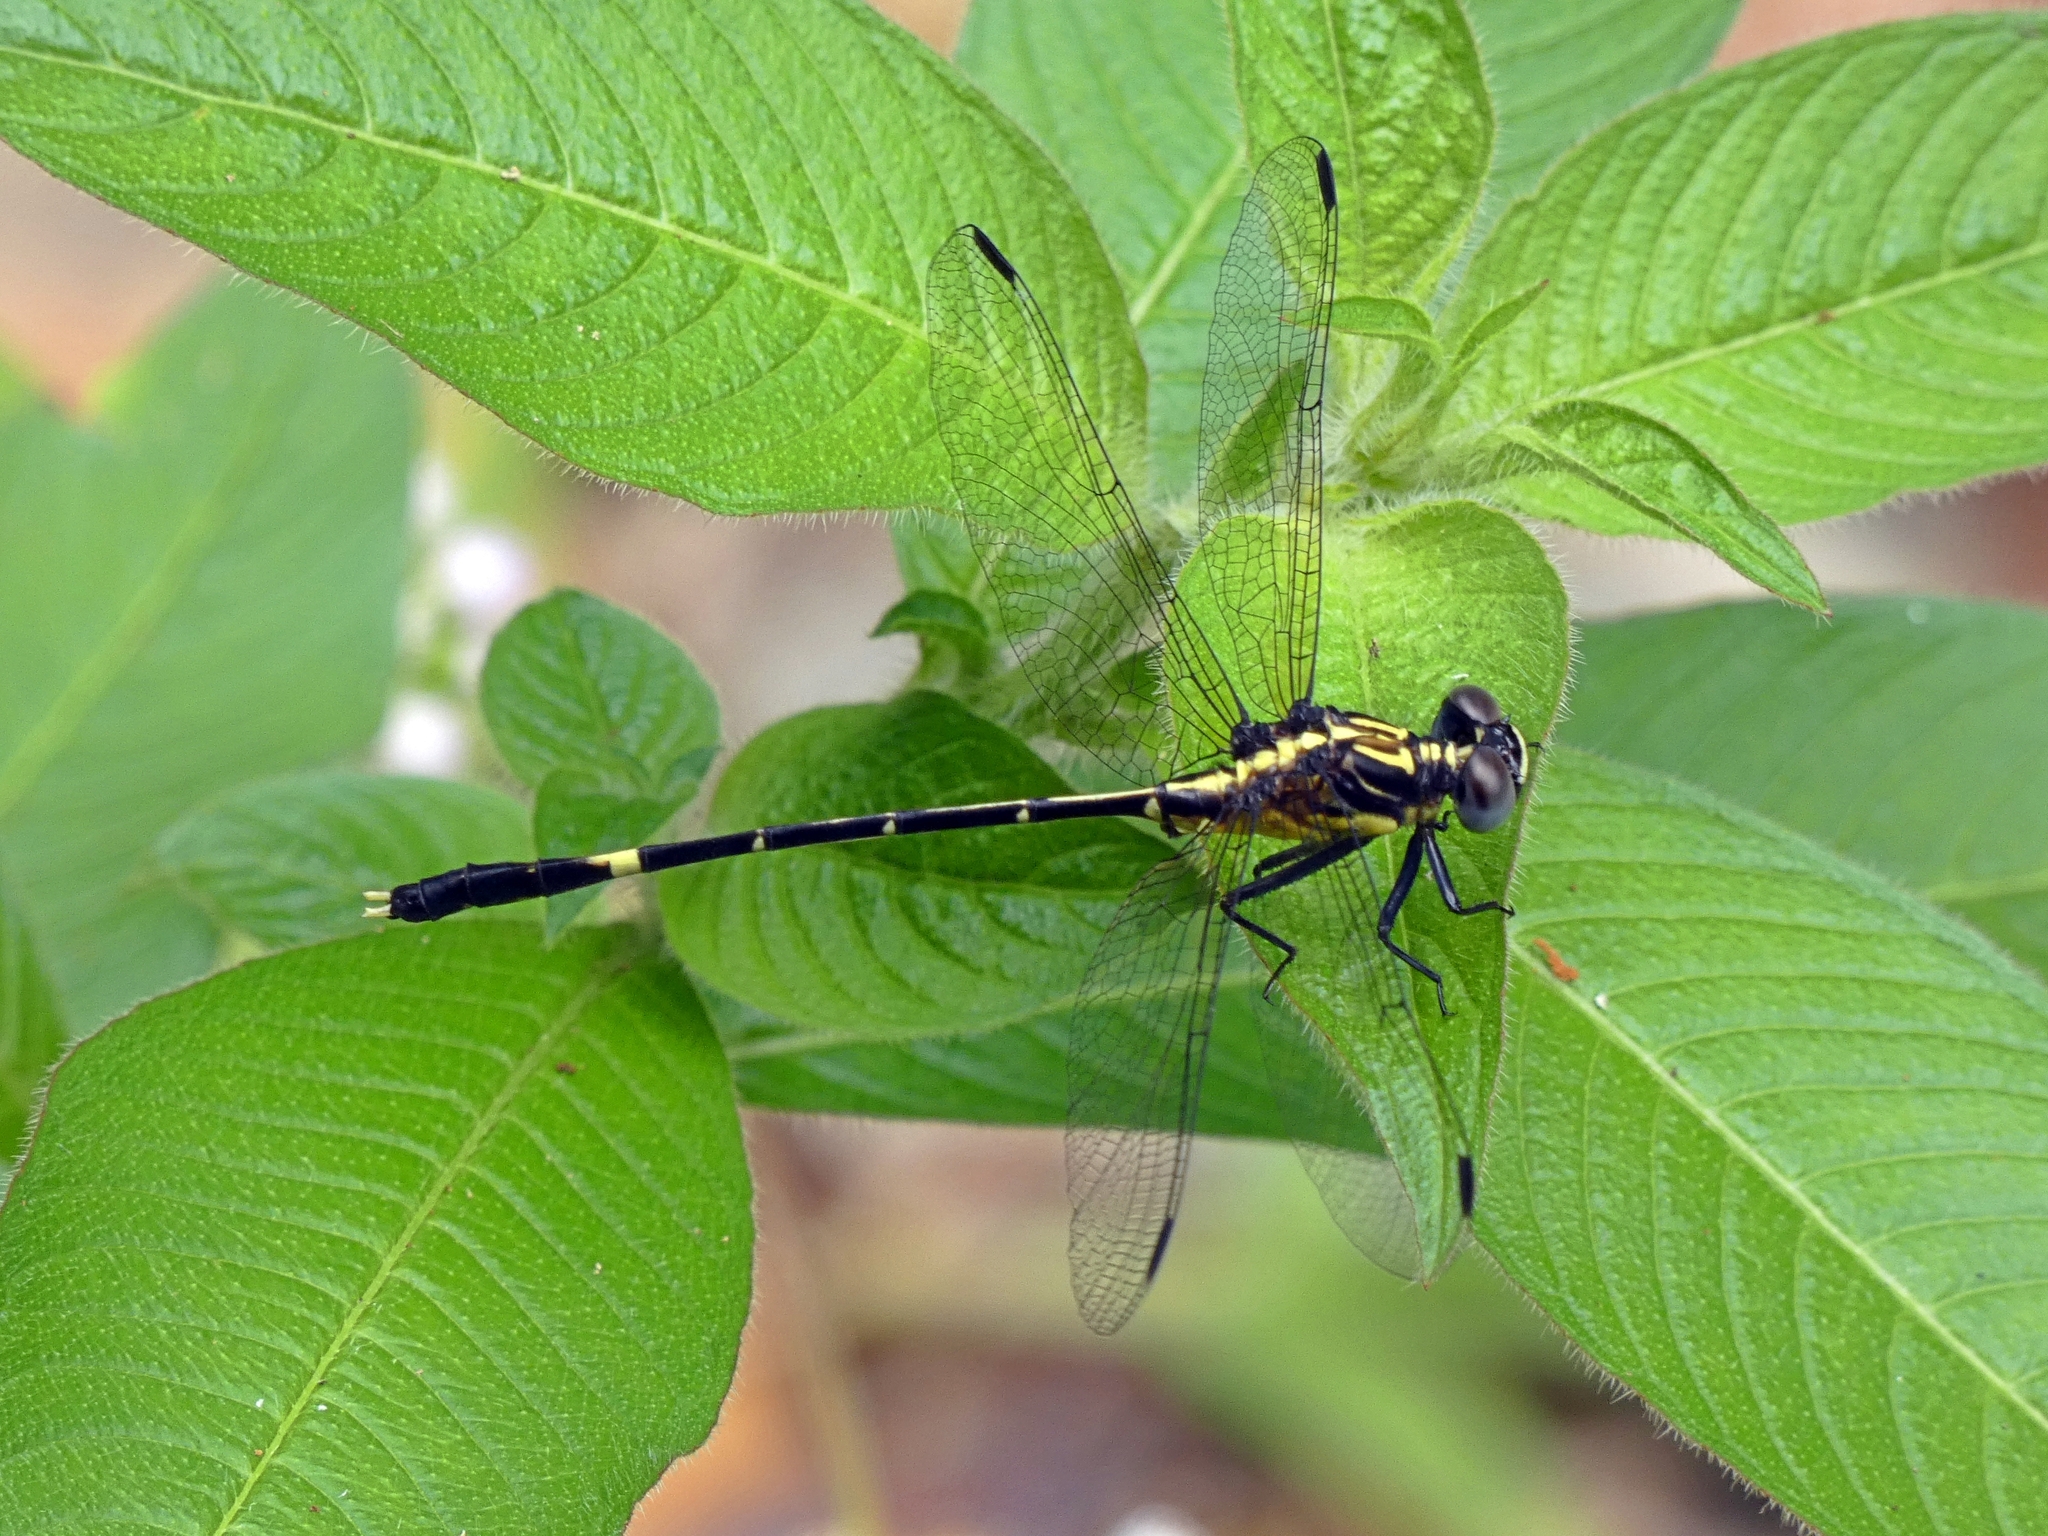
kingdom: Animalia
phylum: Arthropoda
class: Insecta
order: Odonata
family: Gomphidae
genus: Austrogomphus
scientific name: Austrogomphus prasinus
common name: Lemon-tipped hunter
